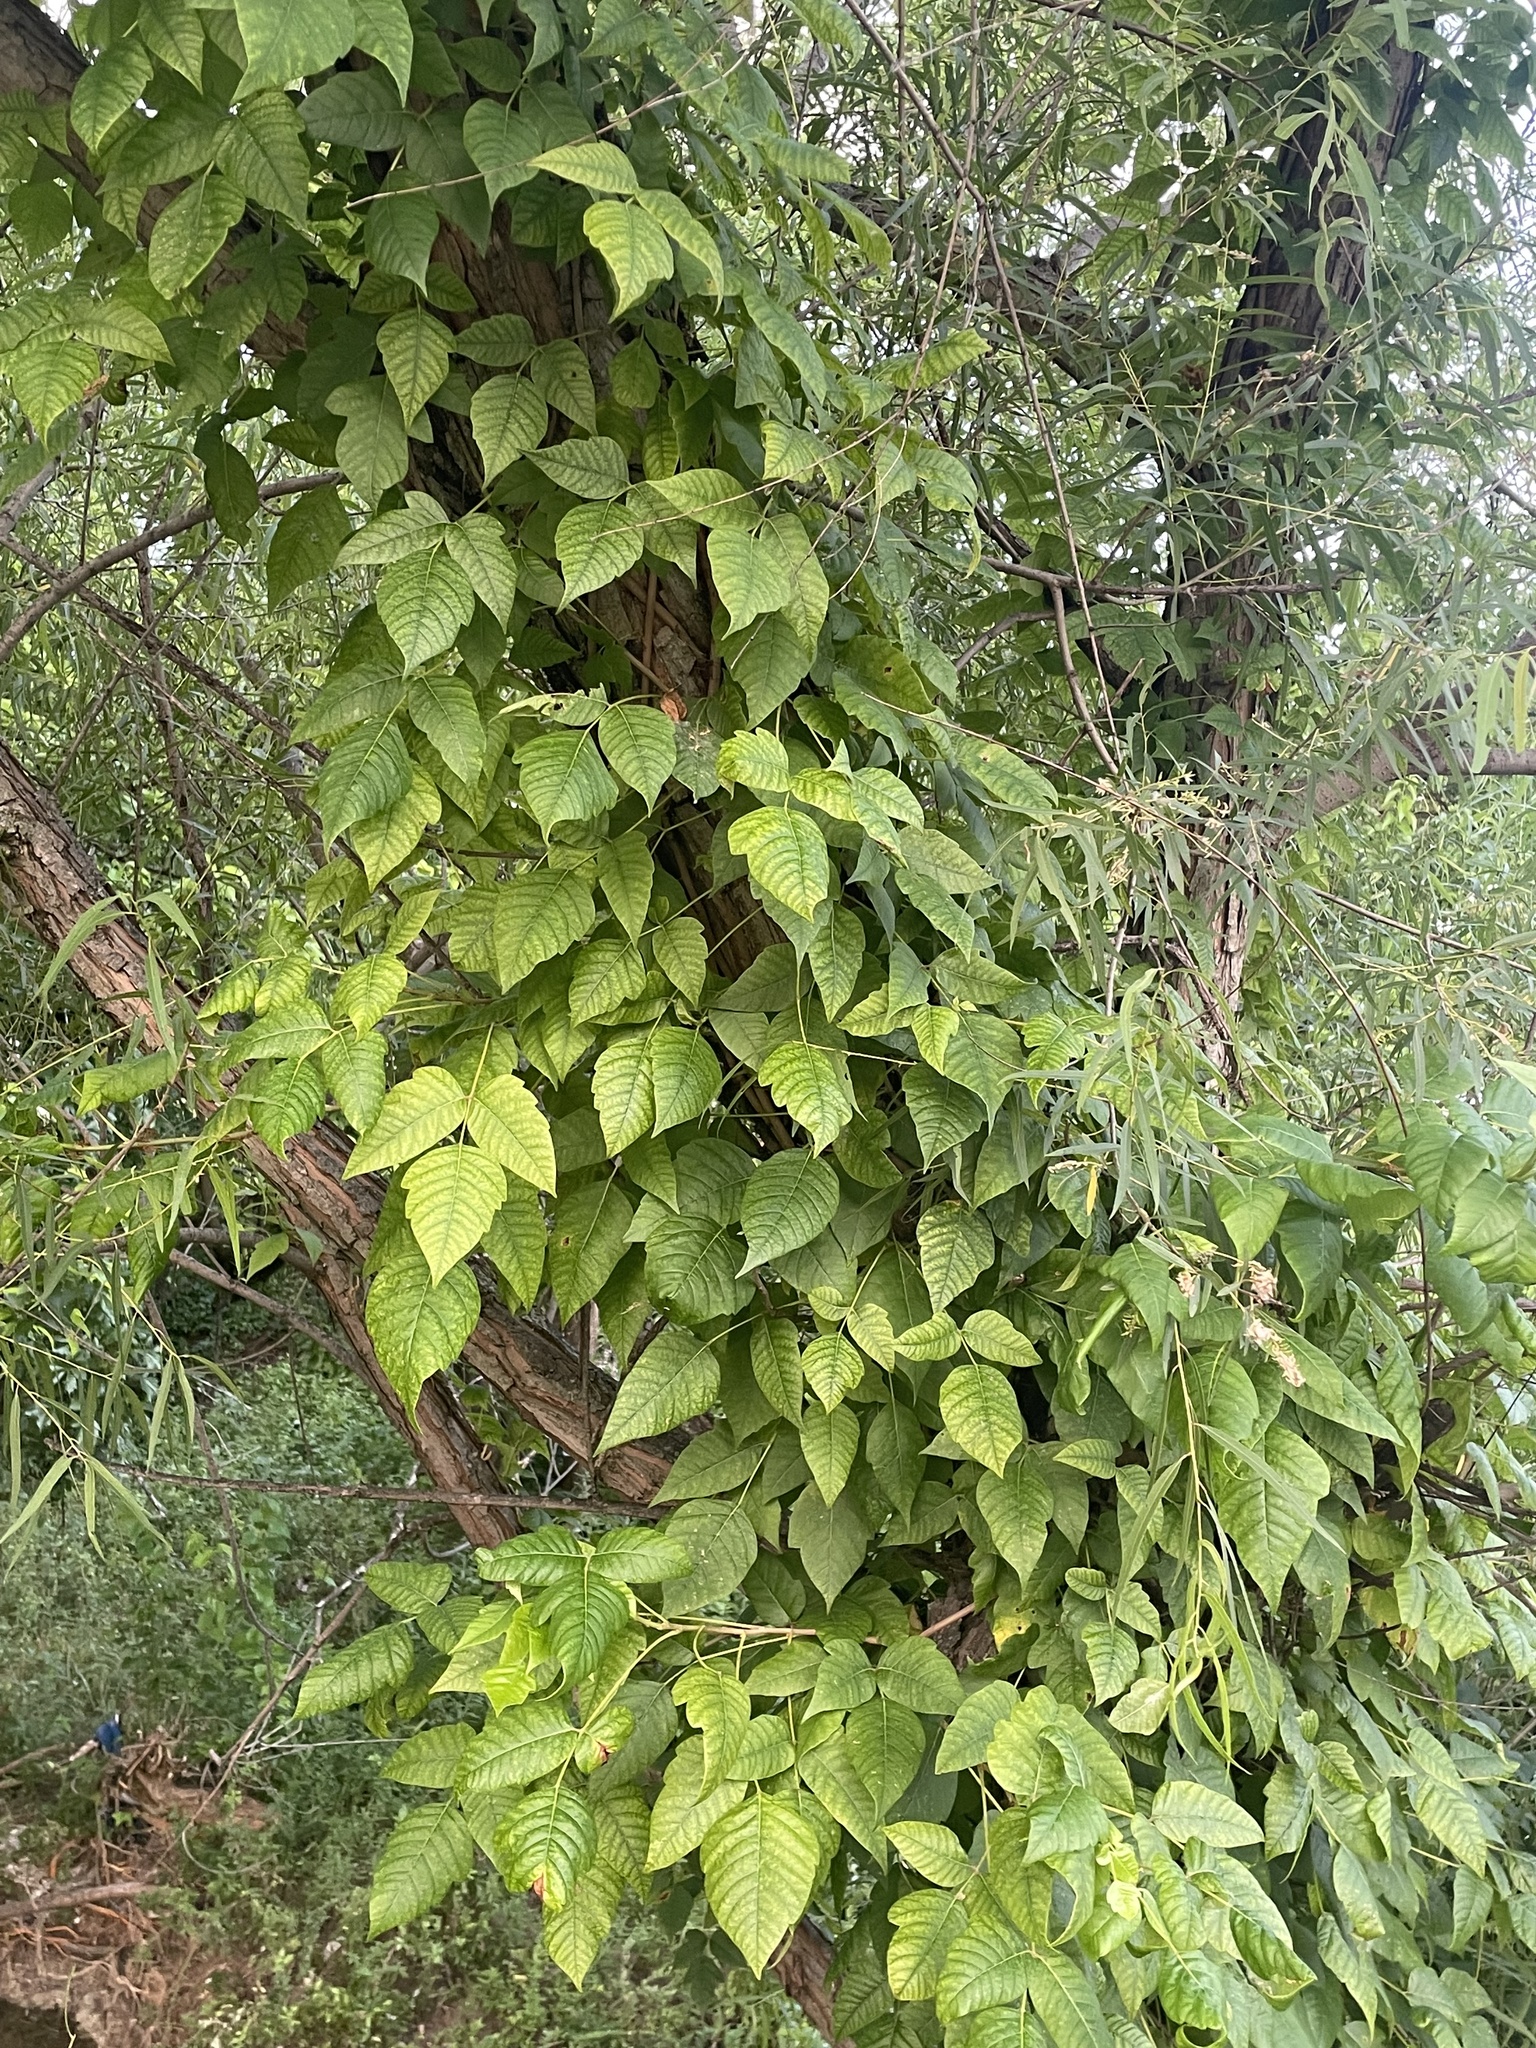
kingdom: Plantae
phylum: Tracheophyta
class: Magnoliopsida
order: Sapindales
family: Anacardiaceae
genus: Toxicodendron
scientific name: Toxicodendron radicans
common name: Poison ivy
